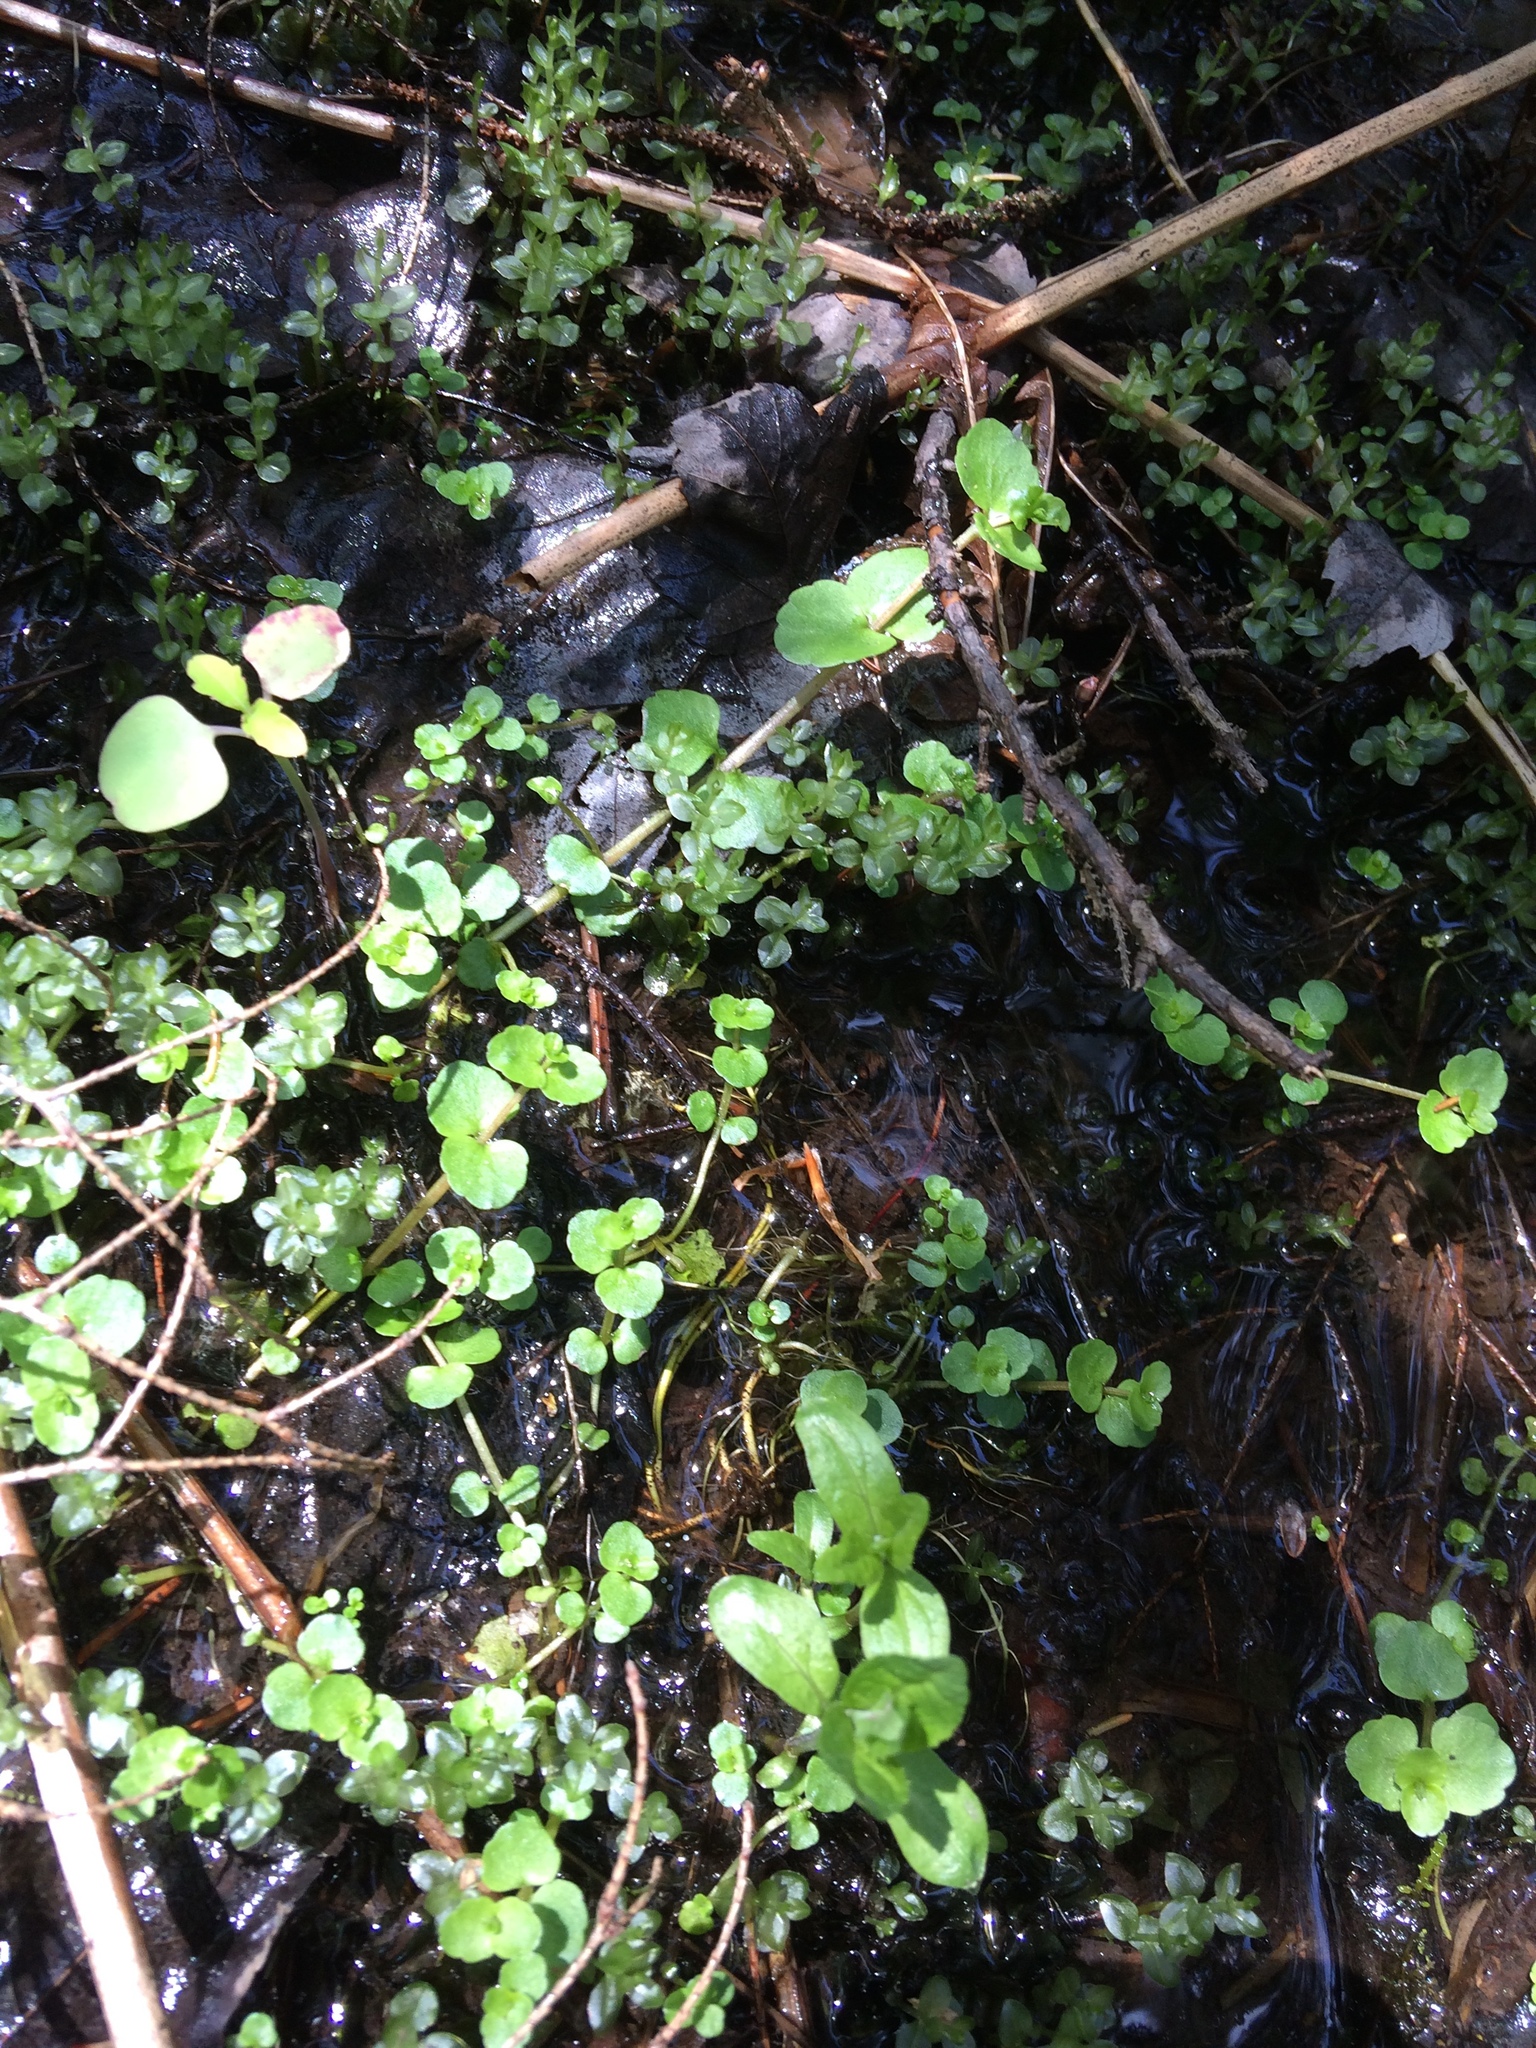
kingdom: Plantae
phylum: Tracheophyta
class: Magnoliopsida
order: Saxifragales
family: Saxifragaceae
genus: Chrysosplenium
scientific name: Chrysosplenium americanum
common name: American golden-saxifrage
